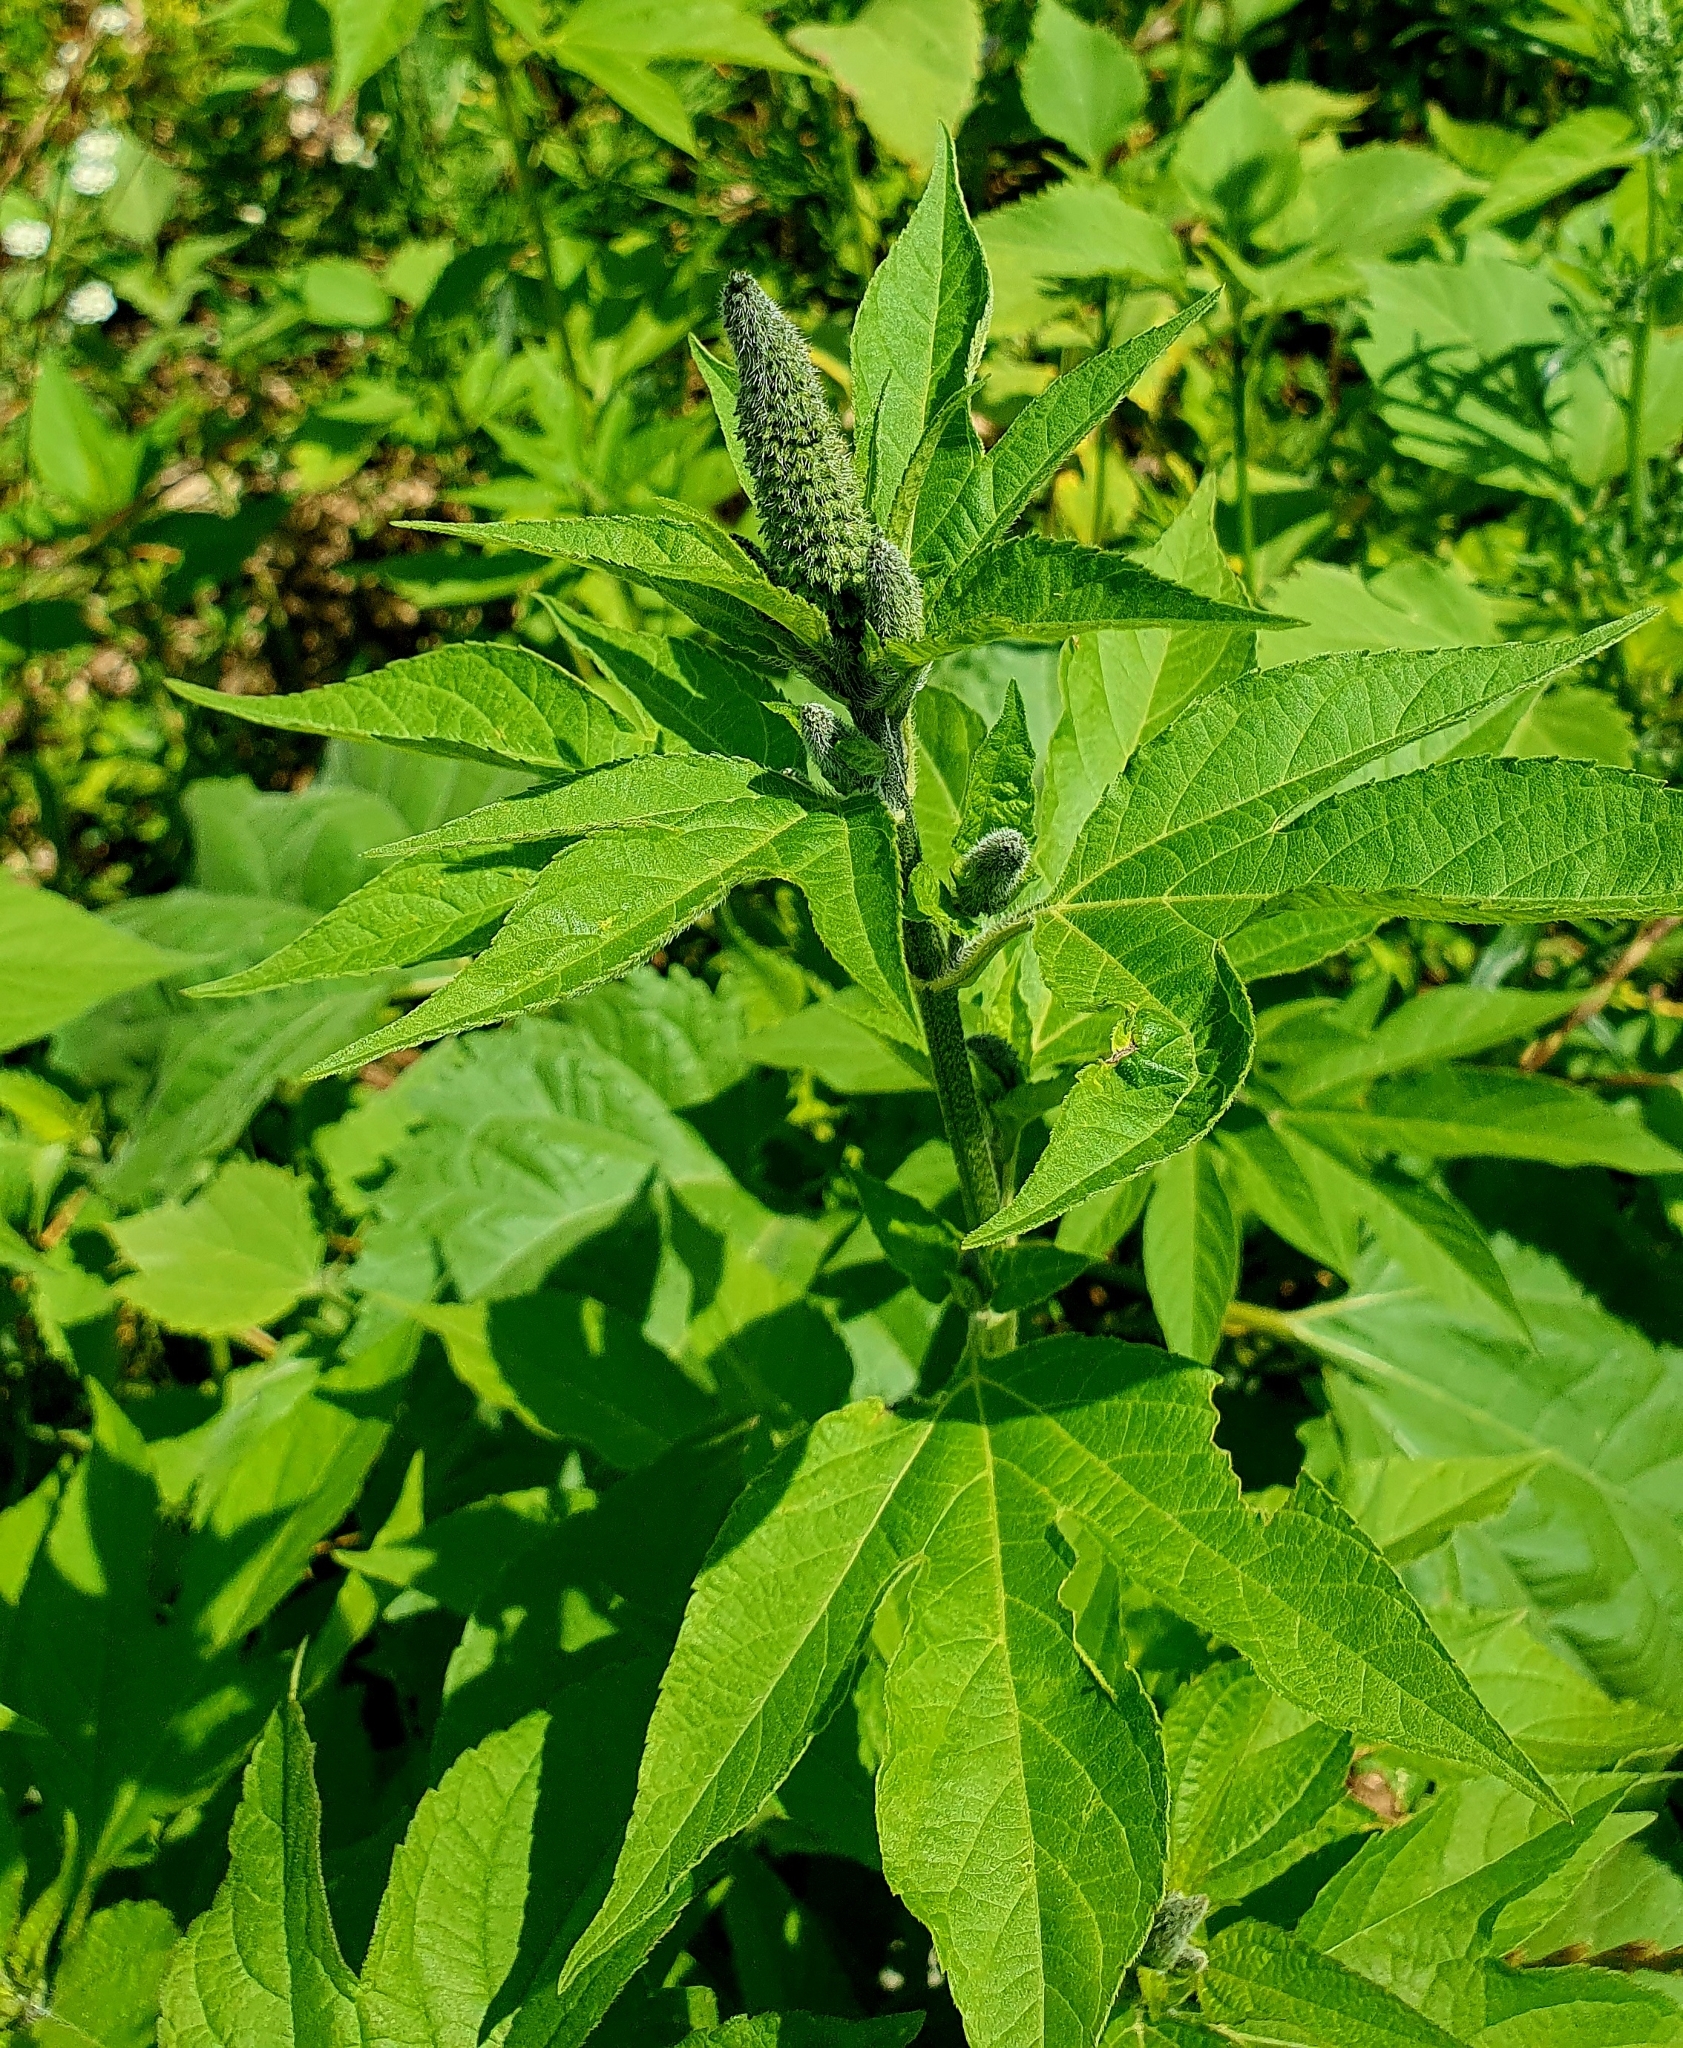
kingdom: Plantae
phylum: Tracheophyta
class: Magnoliopsida
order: Asterales
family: Asteraceae
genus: Ambrosia
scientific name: Ambrosia trifida
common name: Giant ragweed
